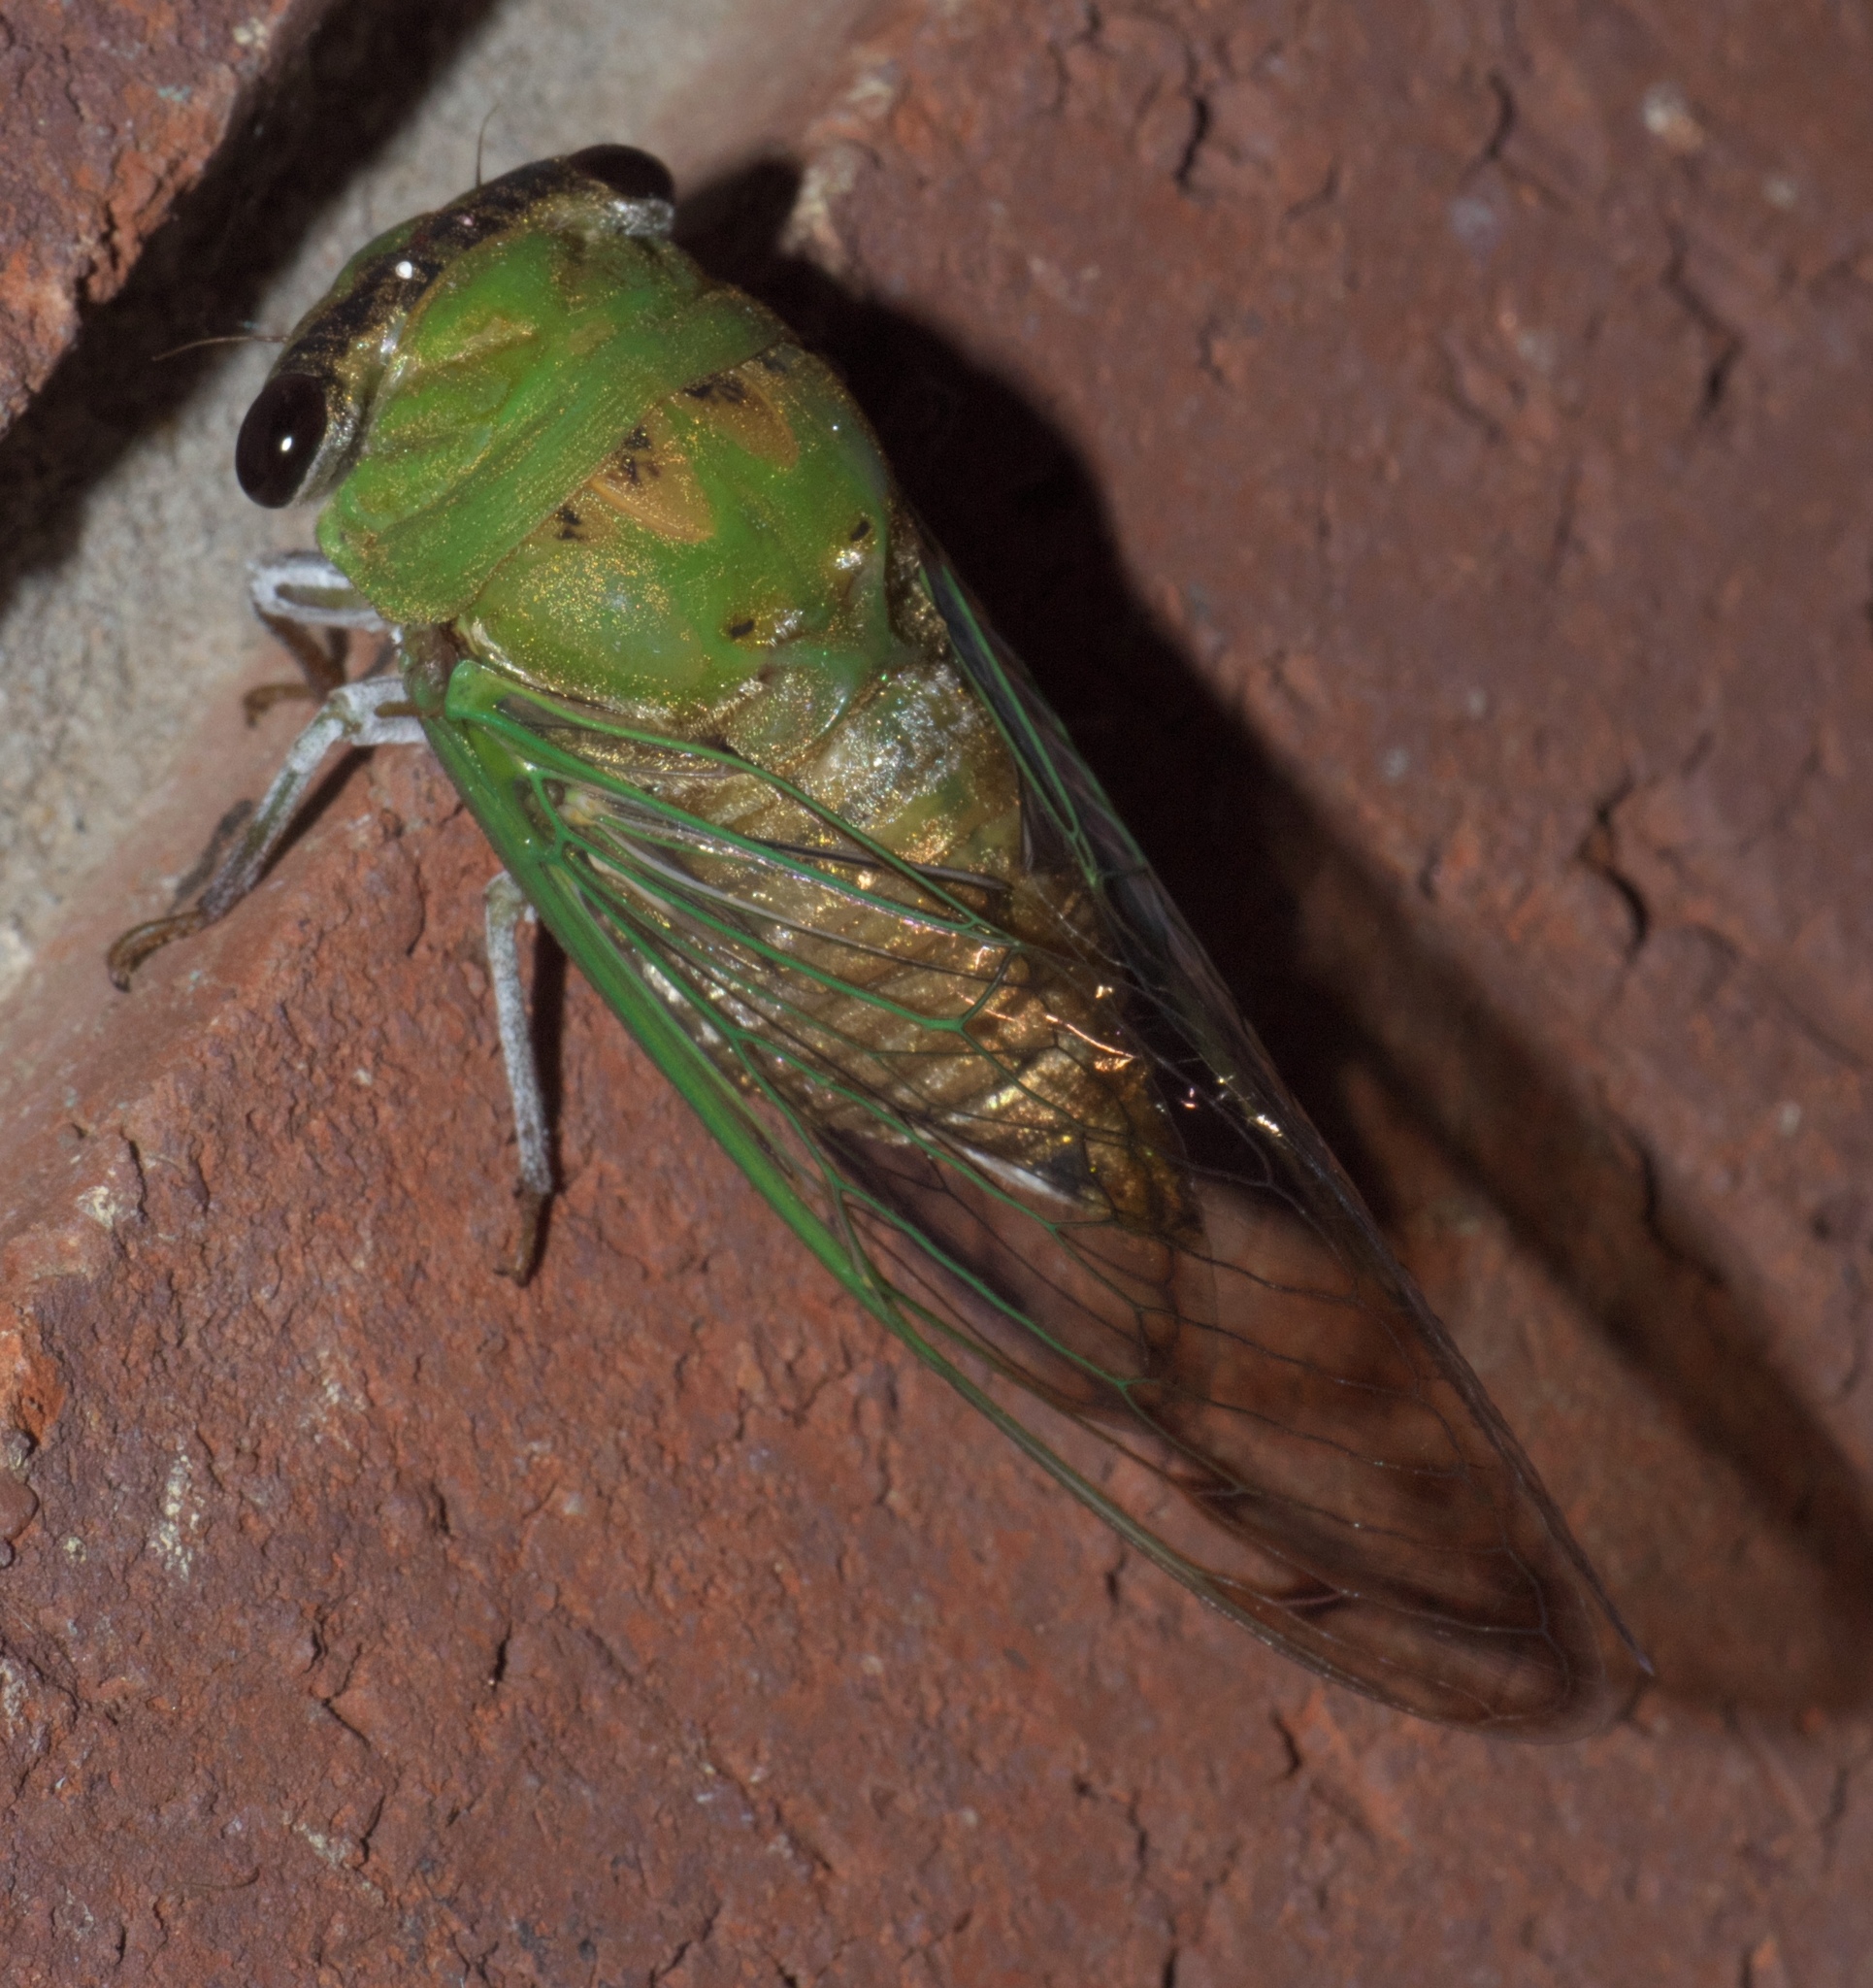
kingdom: Animalia
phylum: Arthropoda
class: Insecta
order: Hemiptera
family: Cicadidae
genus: Neotibicen
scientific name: Neotibicen superbus
